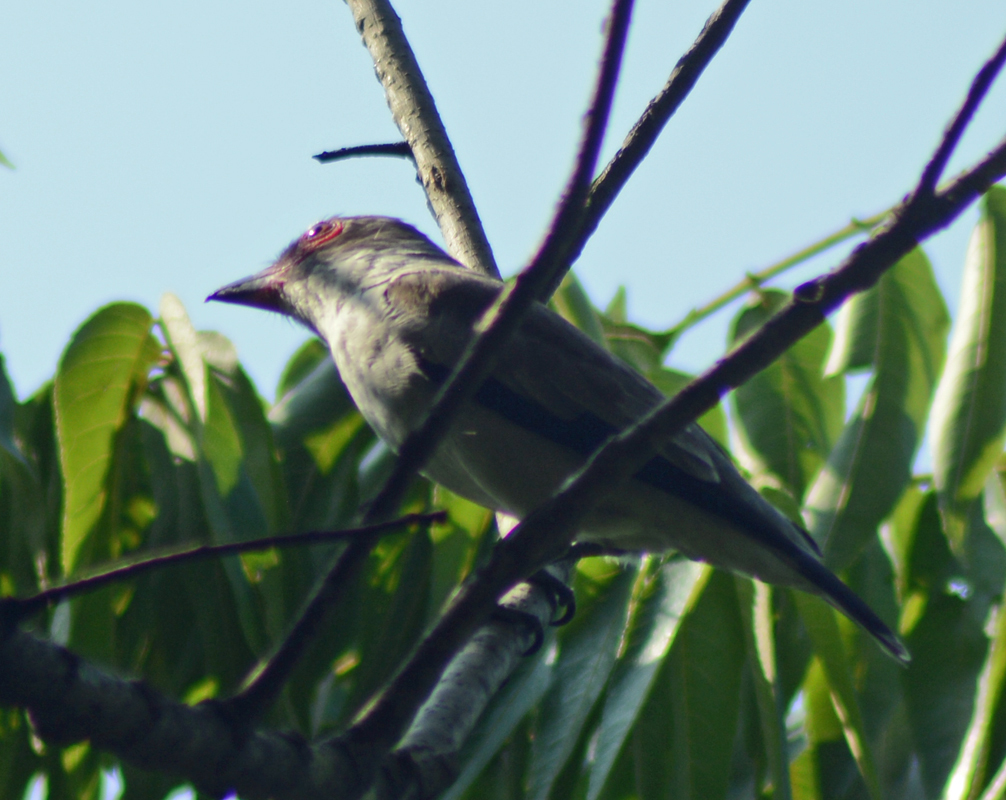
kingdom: Animalia
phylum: Chordata
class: Aves
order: Passeriformes
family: Cotingidae
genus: Tityra
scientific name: Tityra semifasciata
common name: Masked tityra
